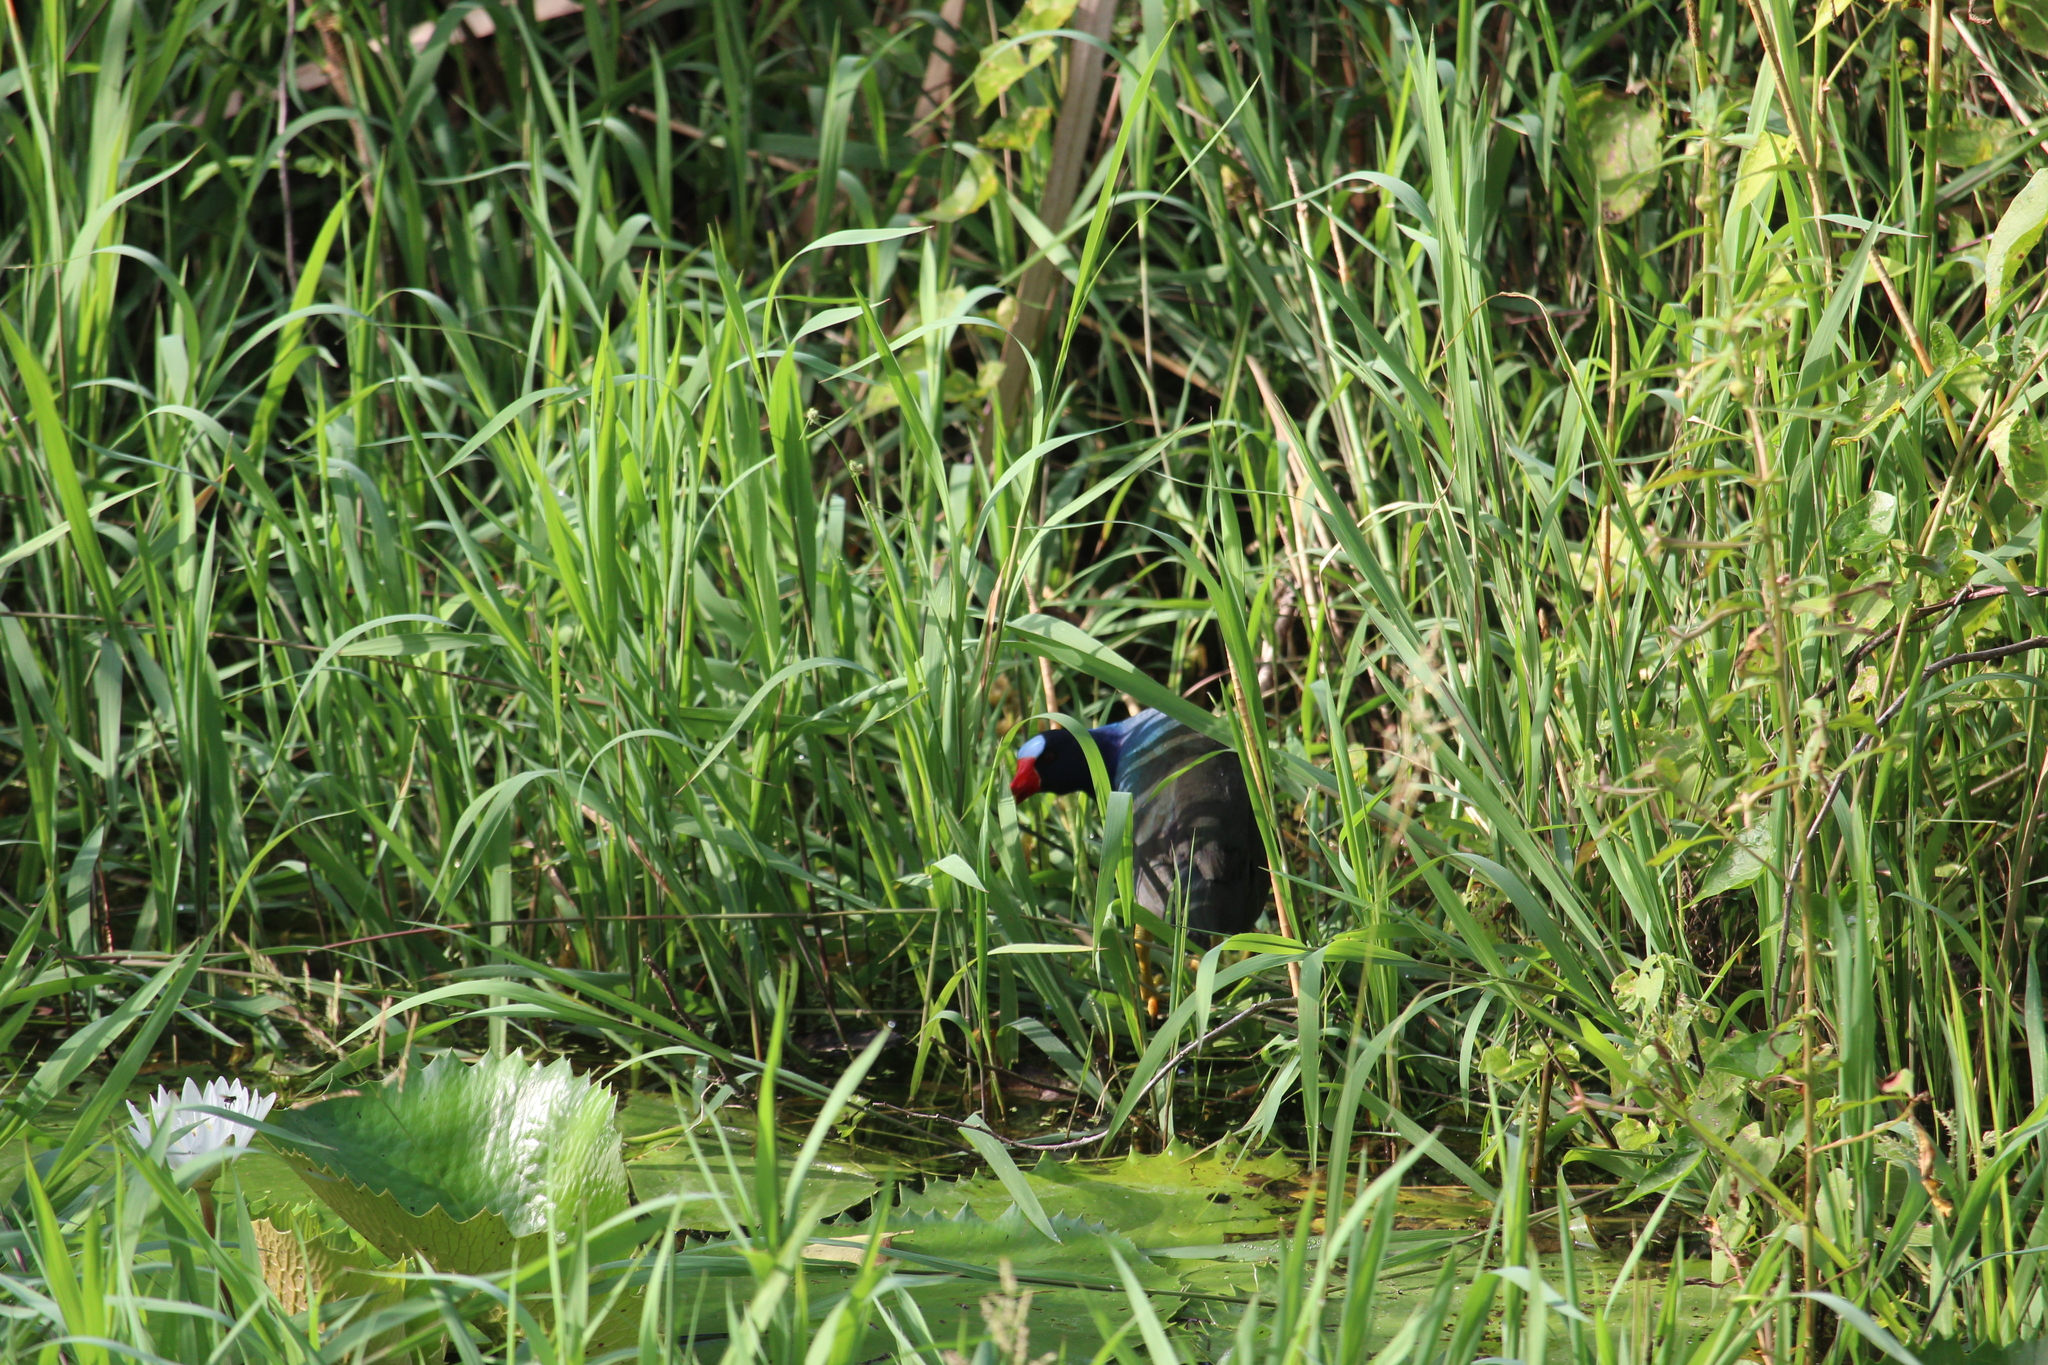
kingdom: Animalia
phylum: Chordata
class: Aves
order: Gruiformes
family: Rallidae
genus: Porphyrio
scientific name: Porphyrio martinica
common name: Purple gallinule
